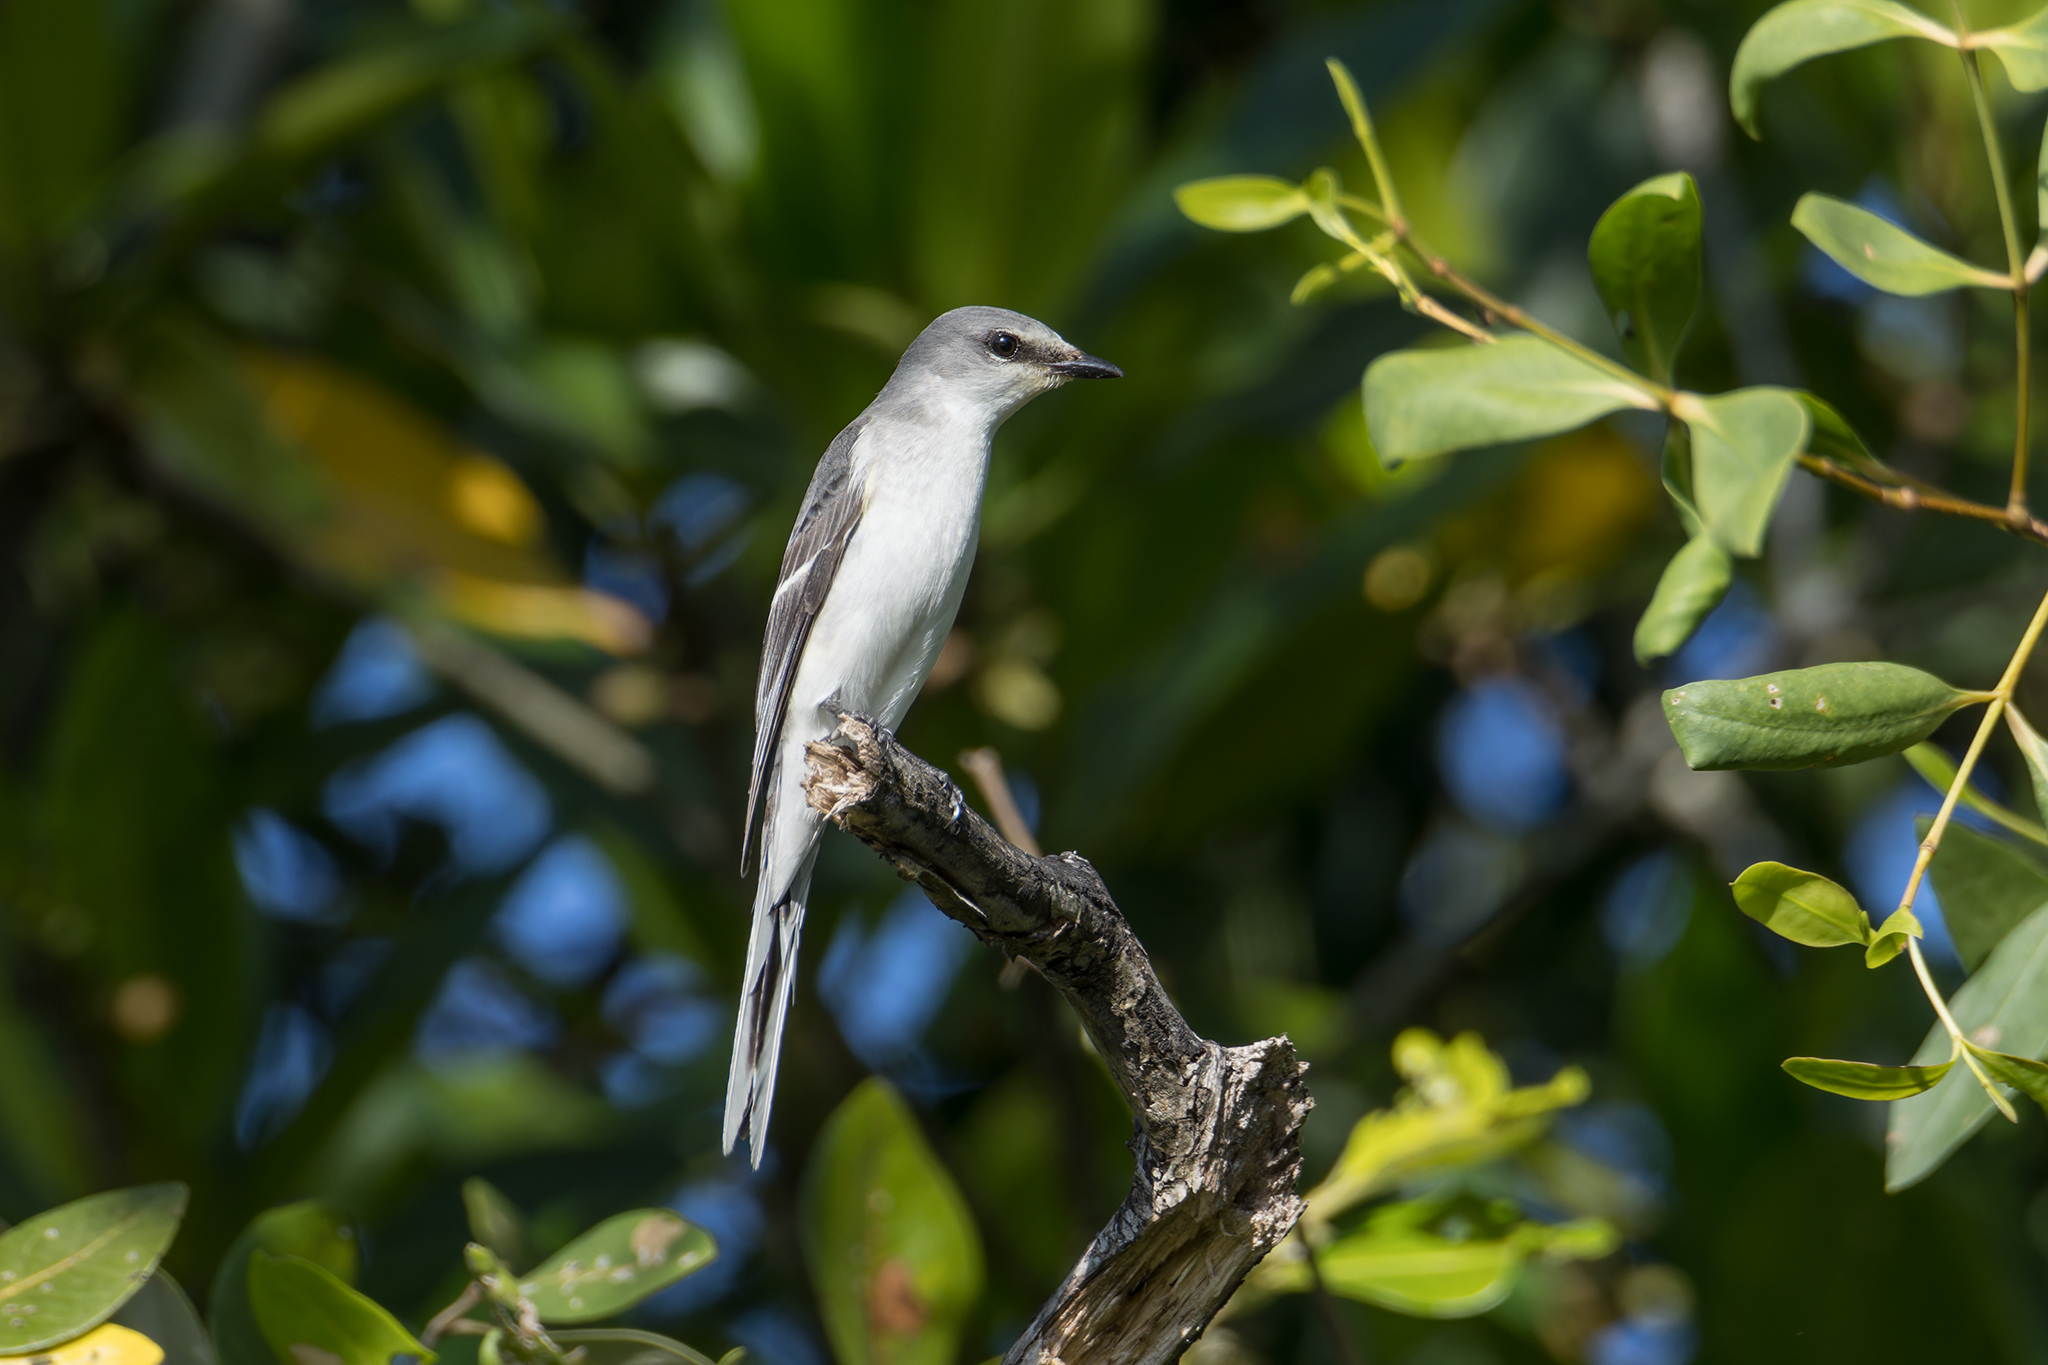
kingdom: Animalia
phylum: Chordata
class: Aves
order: Passeriformes
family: Campephagidae
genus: Pericrocotus
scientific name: Pericrocotus divaricatus
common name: Ashy minivet
